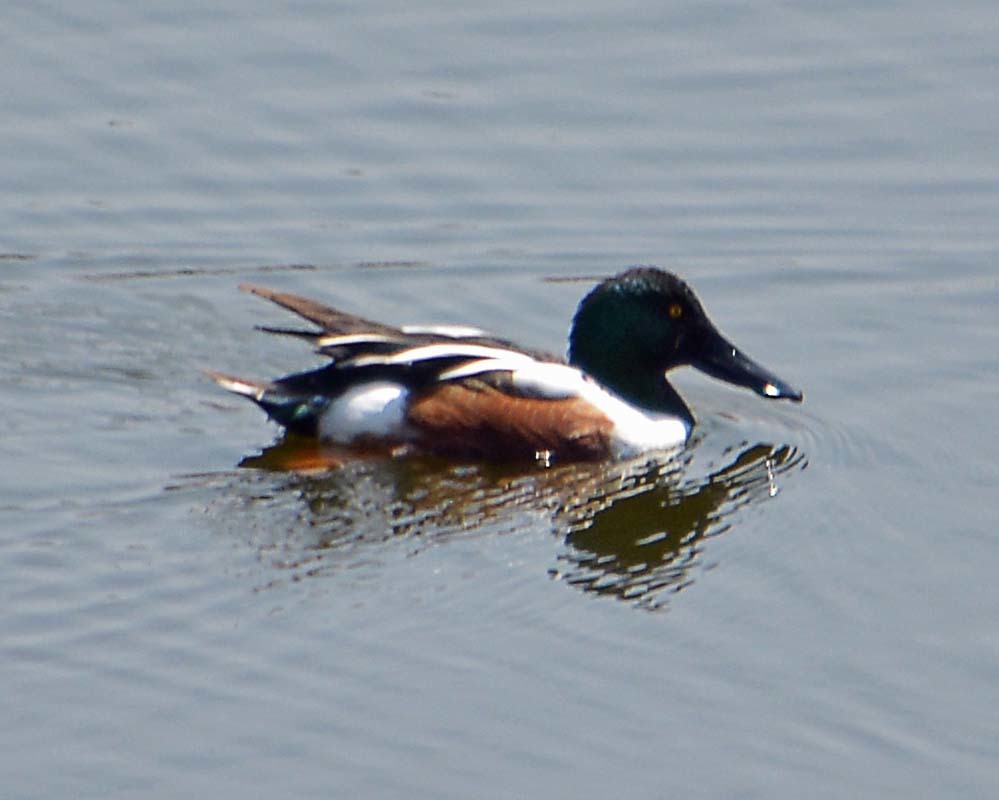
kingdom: Animalia
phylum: Chordata
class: Aves
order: Anseriformes
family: Anatidae
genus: Spatula
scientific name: Spatula clypeata
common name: Northern shoveler
